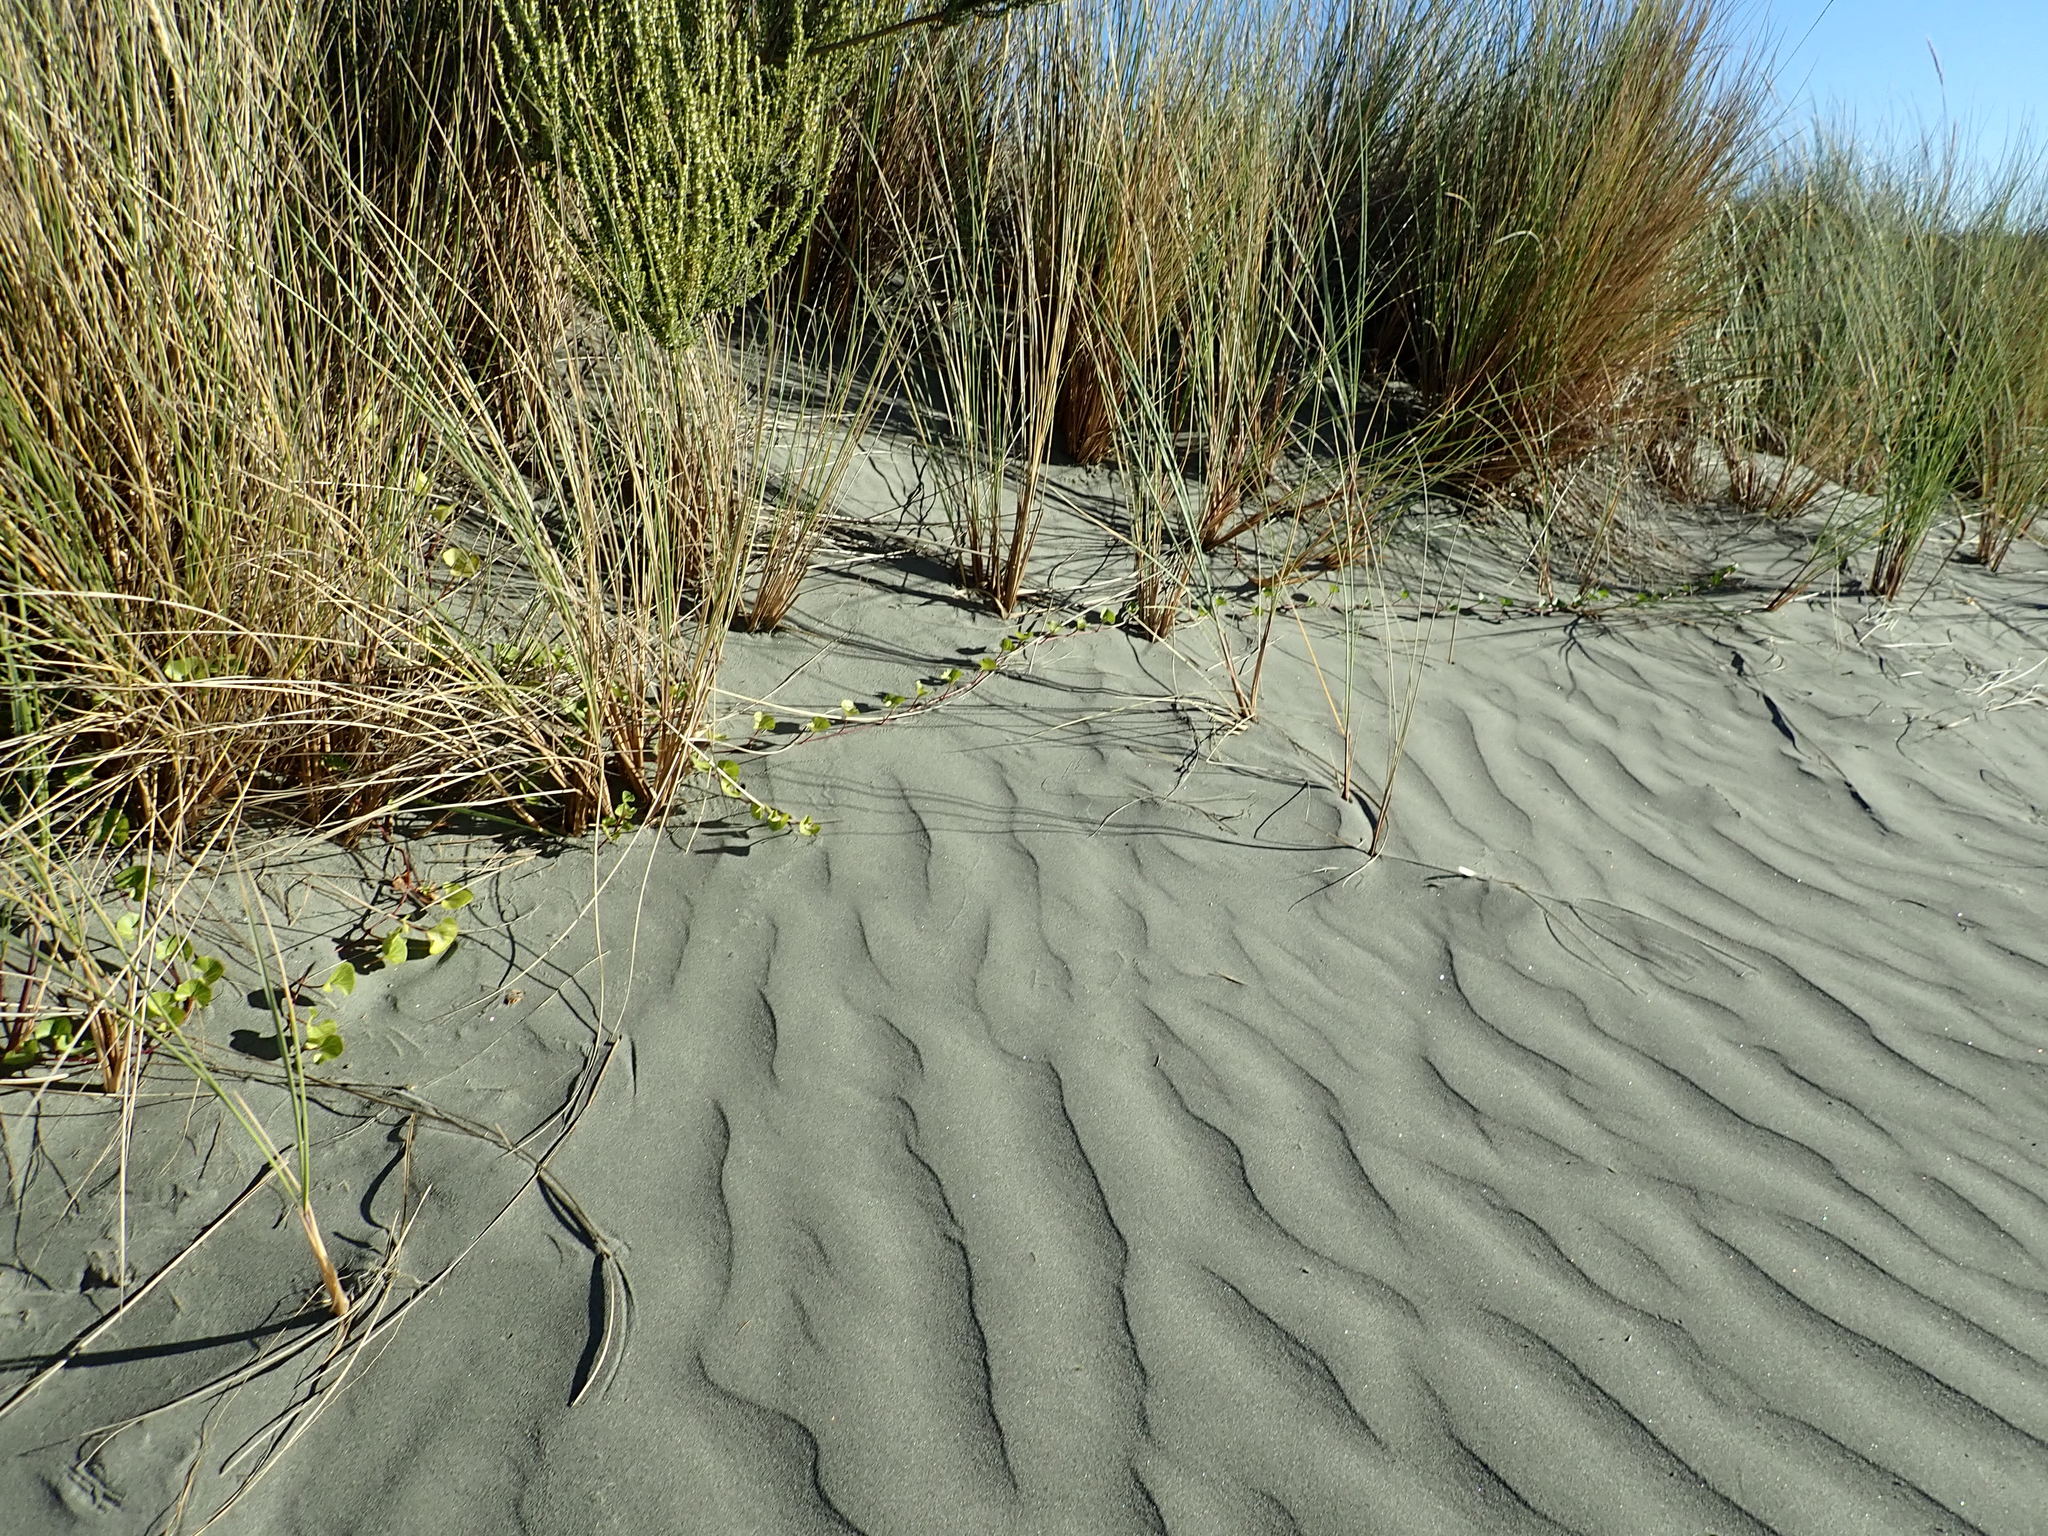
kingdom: Plantae
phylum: Tracheophyta
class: Magnoliopsida
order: Solanales
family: Convolvulaceae
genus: Calystegia
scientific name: Calystegia soldanella
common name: Sea bindweed
